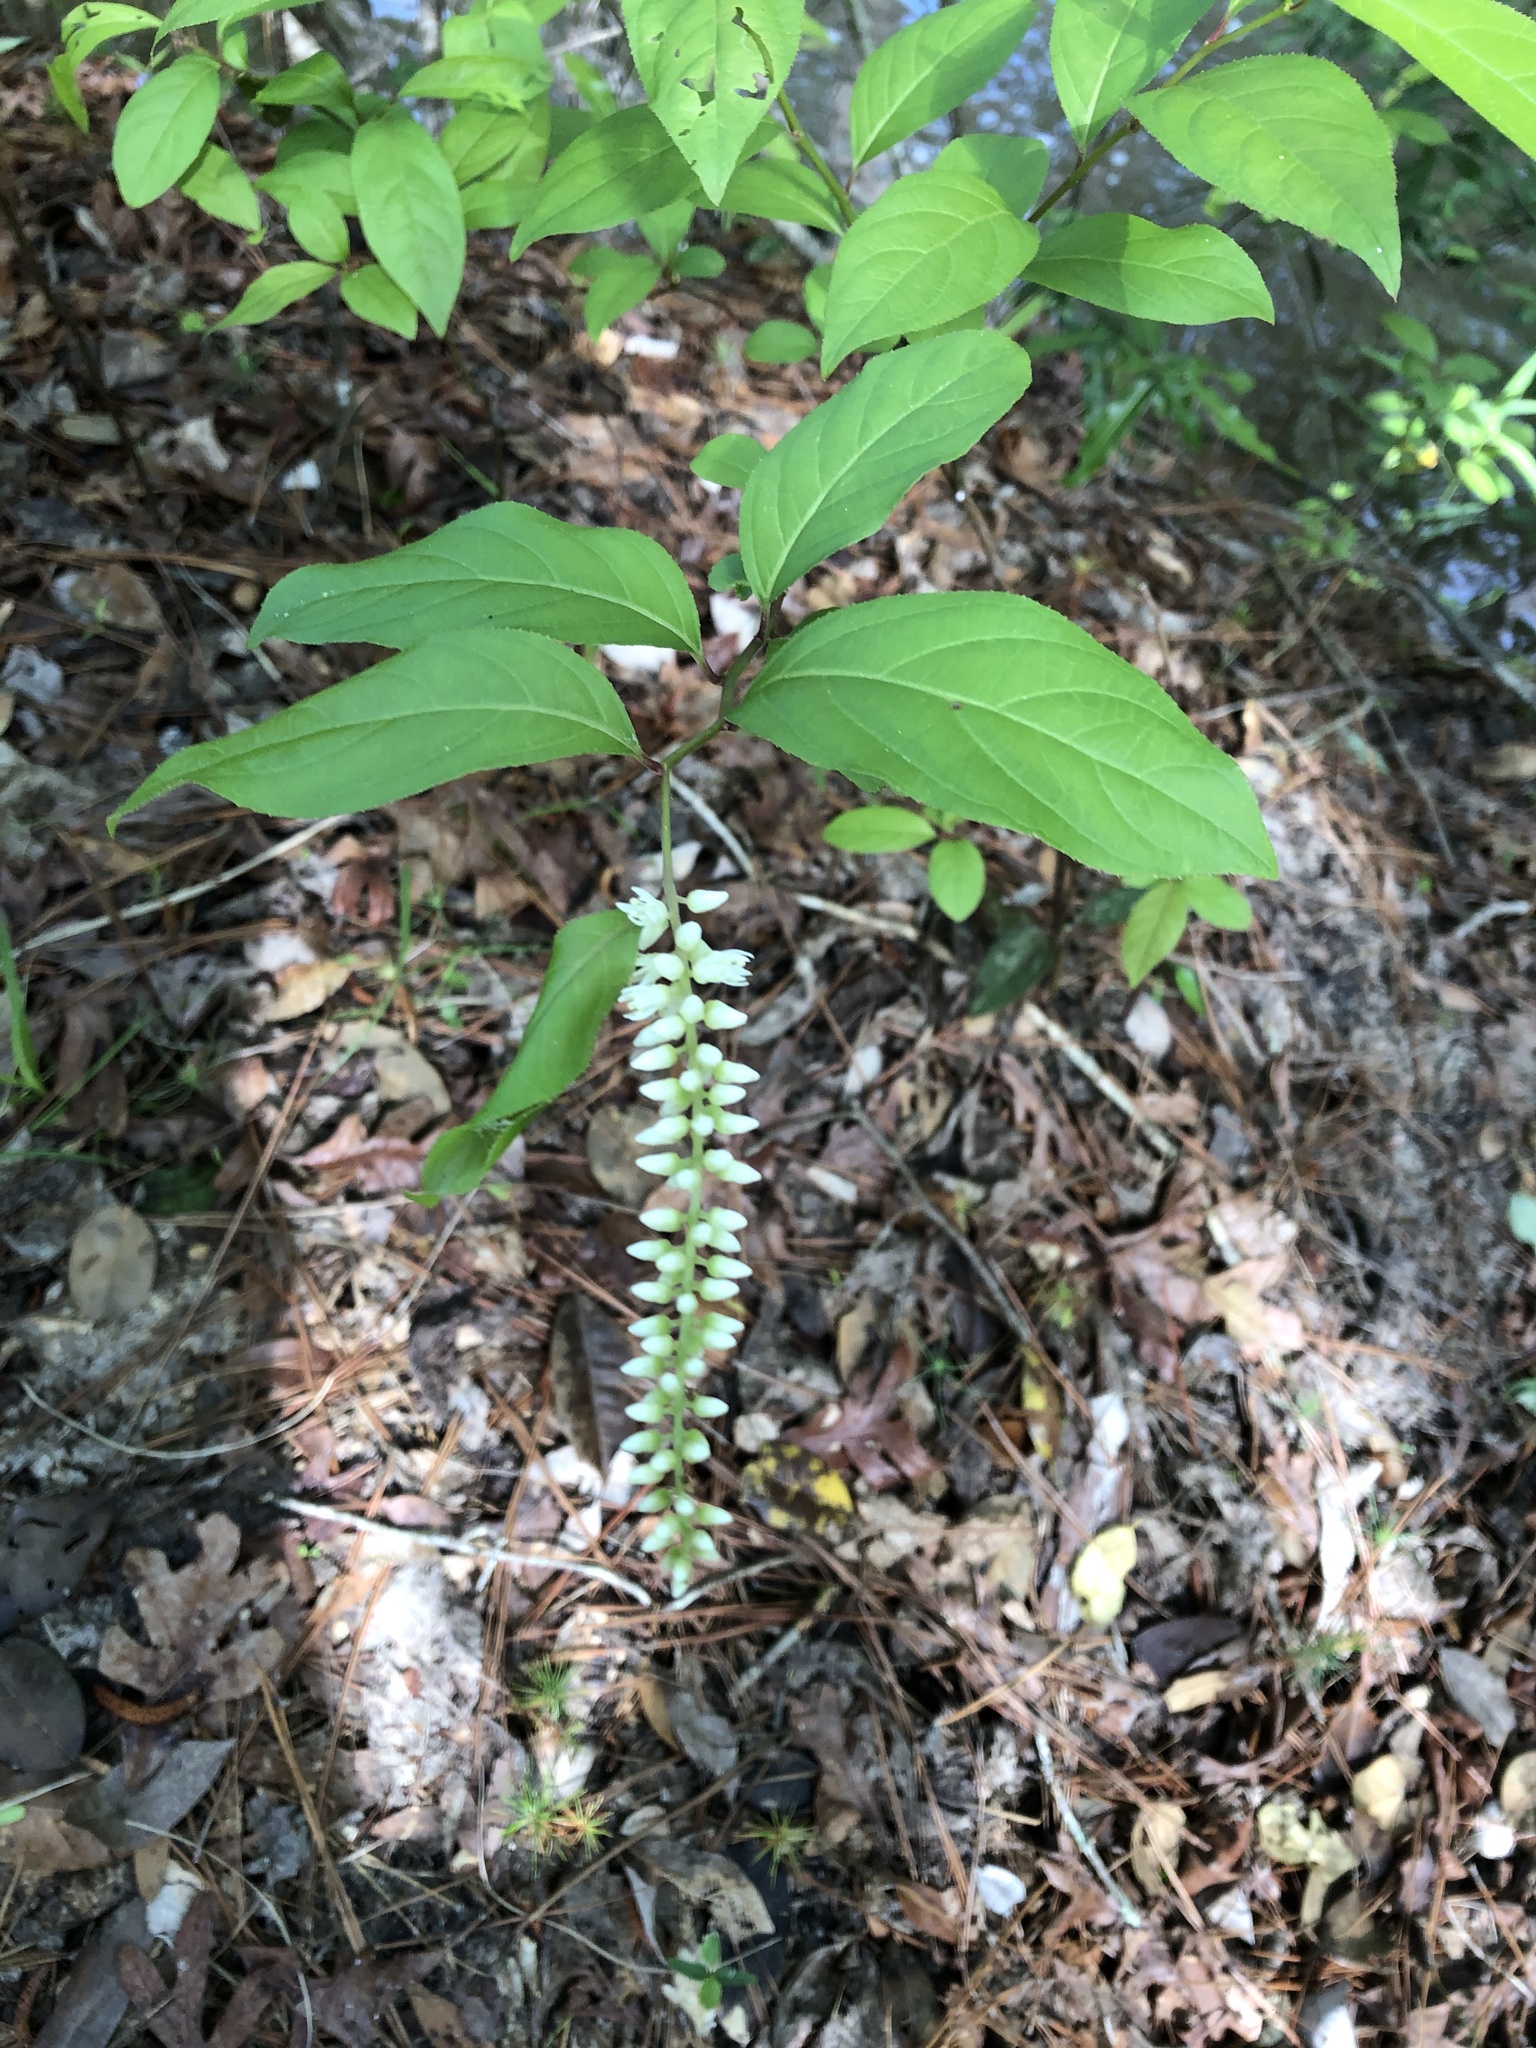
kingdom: Plantae
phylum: Tracheophyta
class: Magnoliopsida
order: Saxifragales
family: Iteaceae
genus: Itea
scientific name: Itea virginica
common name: Sweetspire
